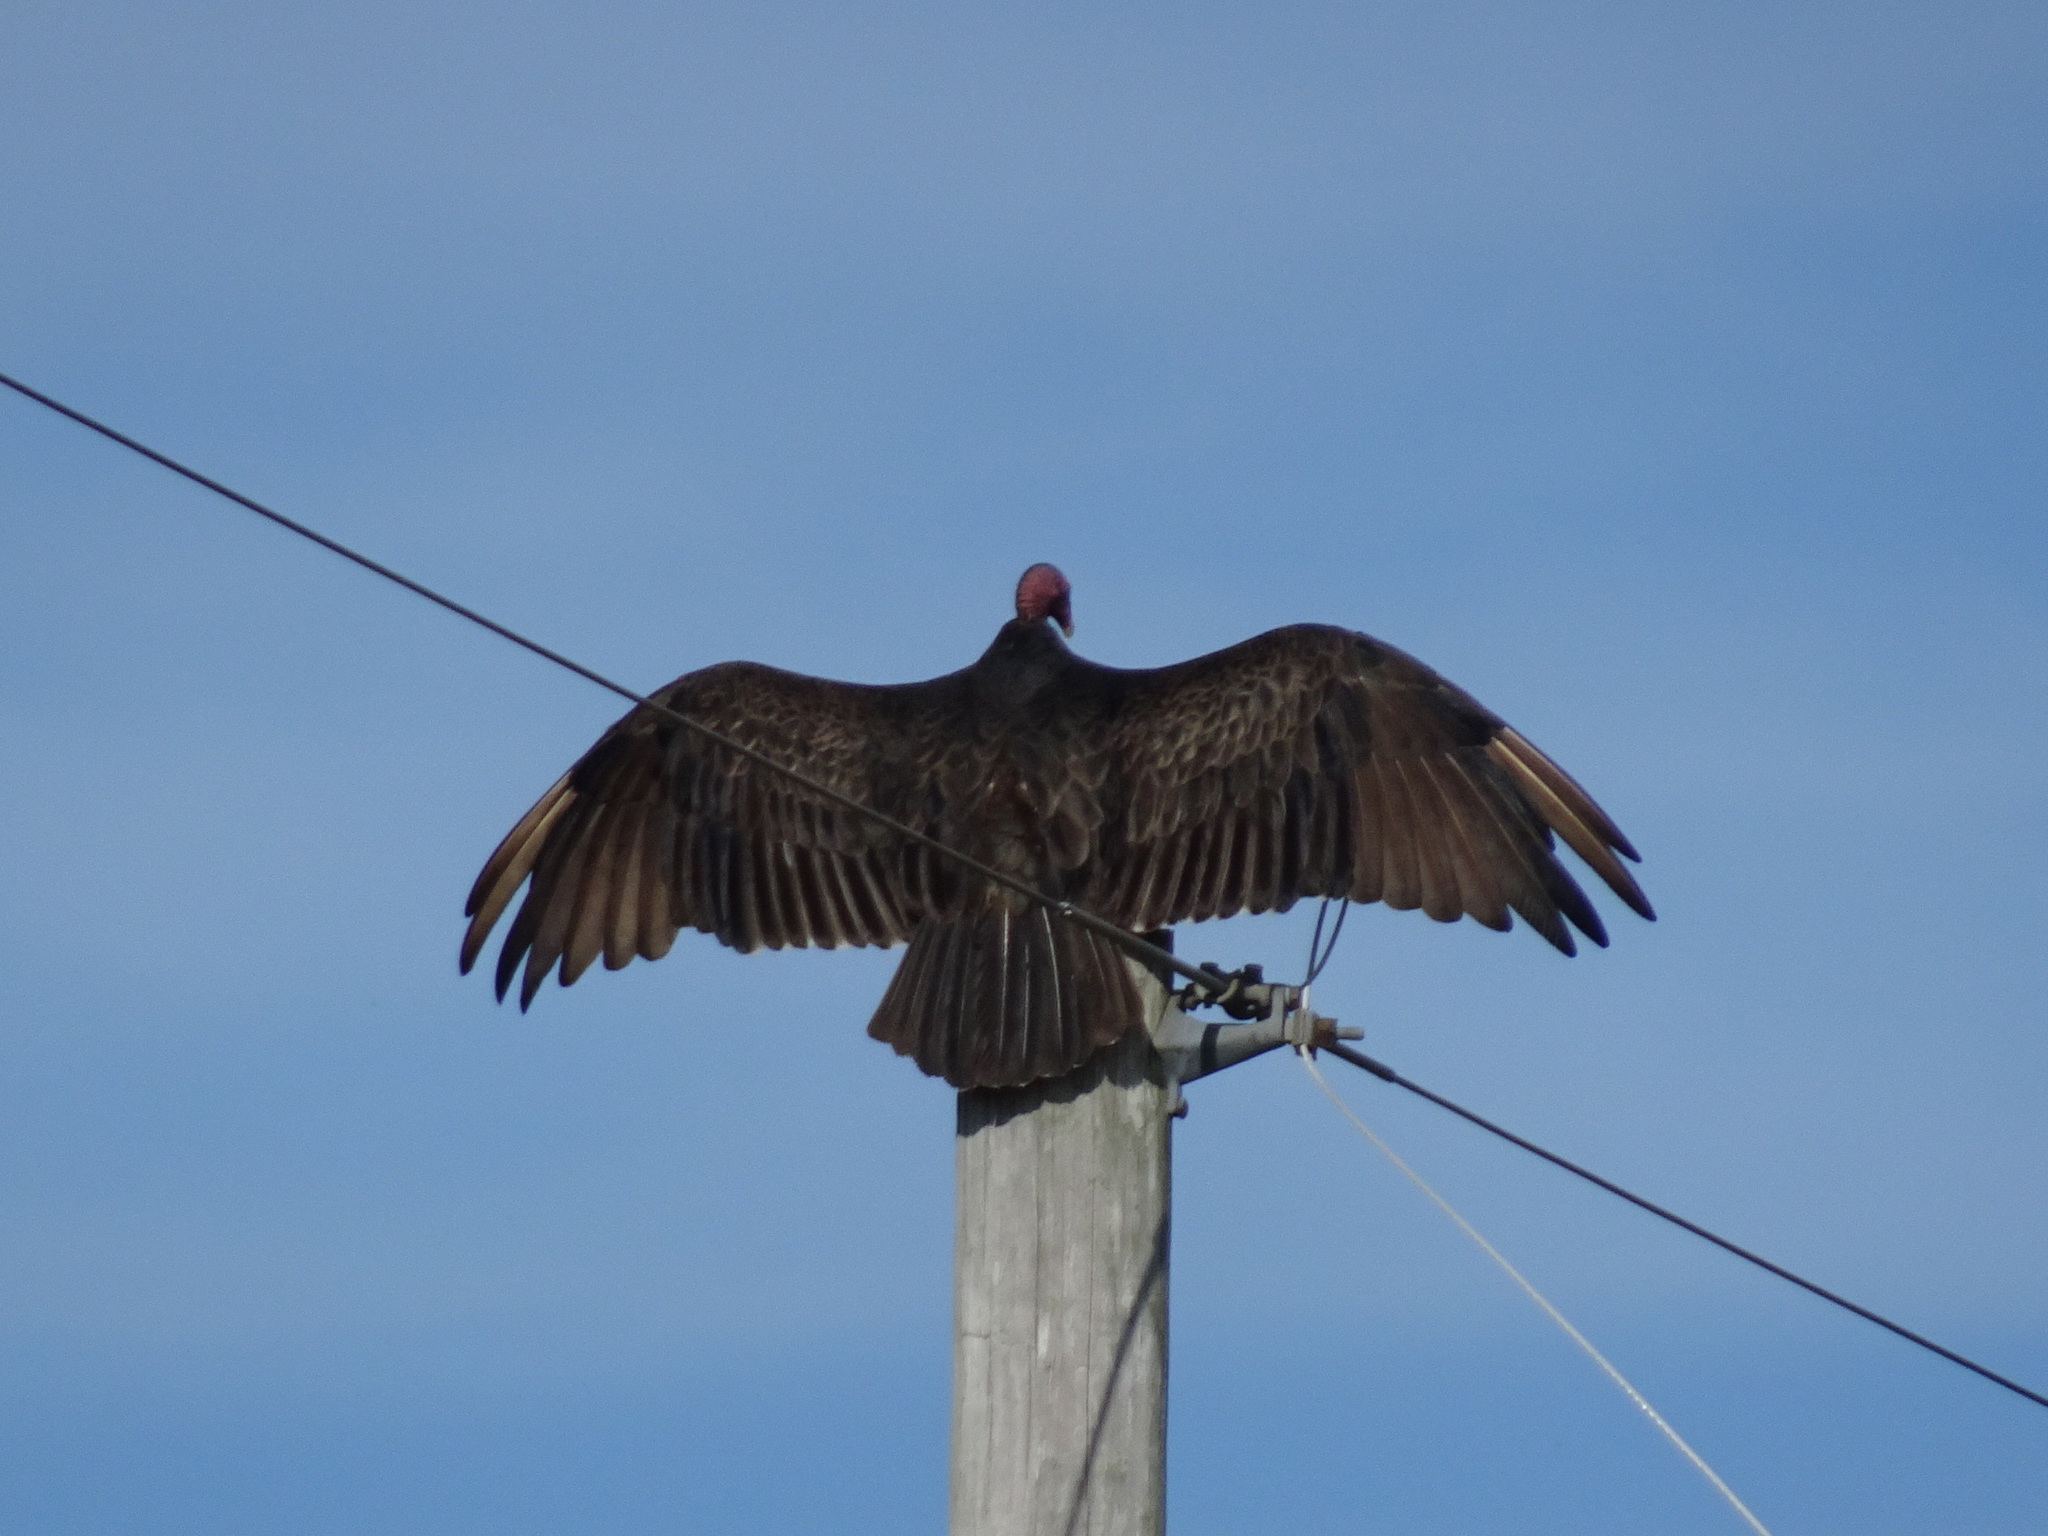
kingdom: Animalia
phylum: Chordata
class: Aves
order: Accipitriformes
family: Cathartidae
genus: Cathartes
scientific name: Cathartes aura
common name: Turkey vulture
